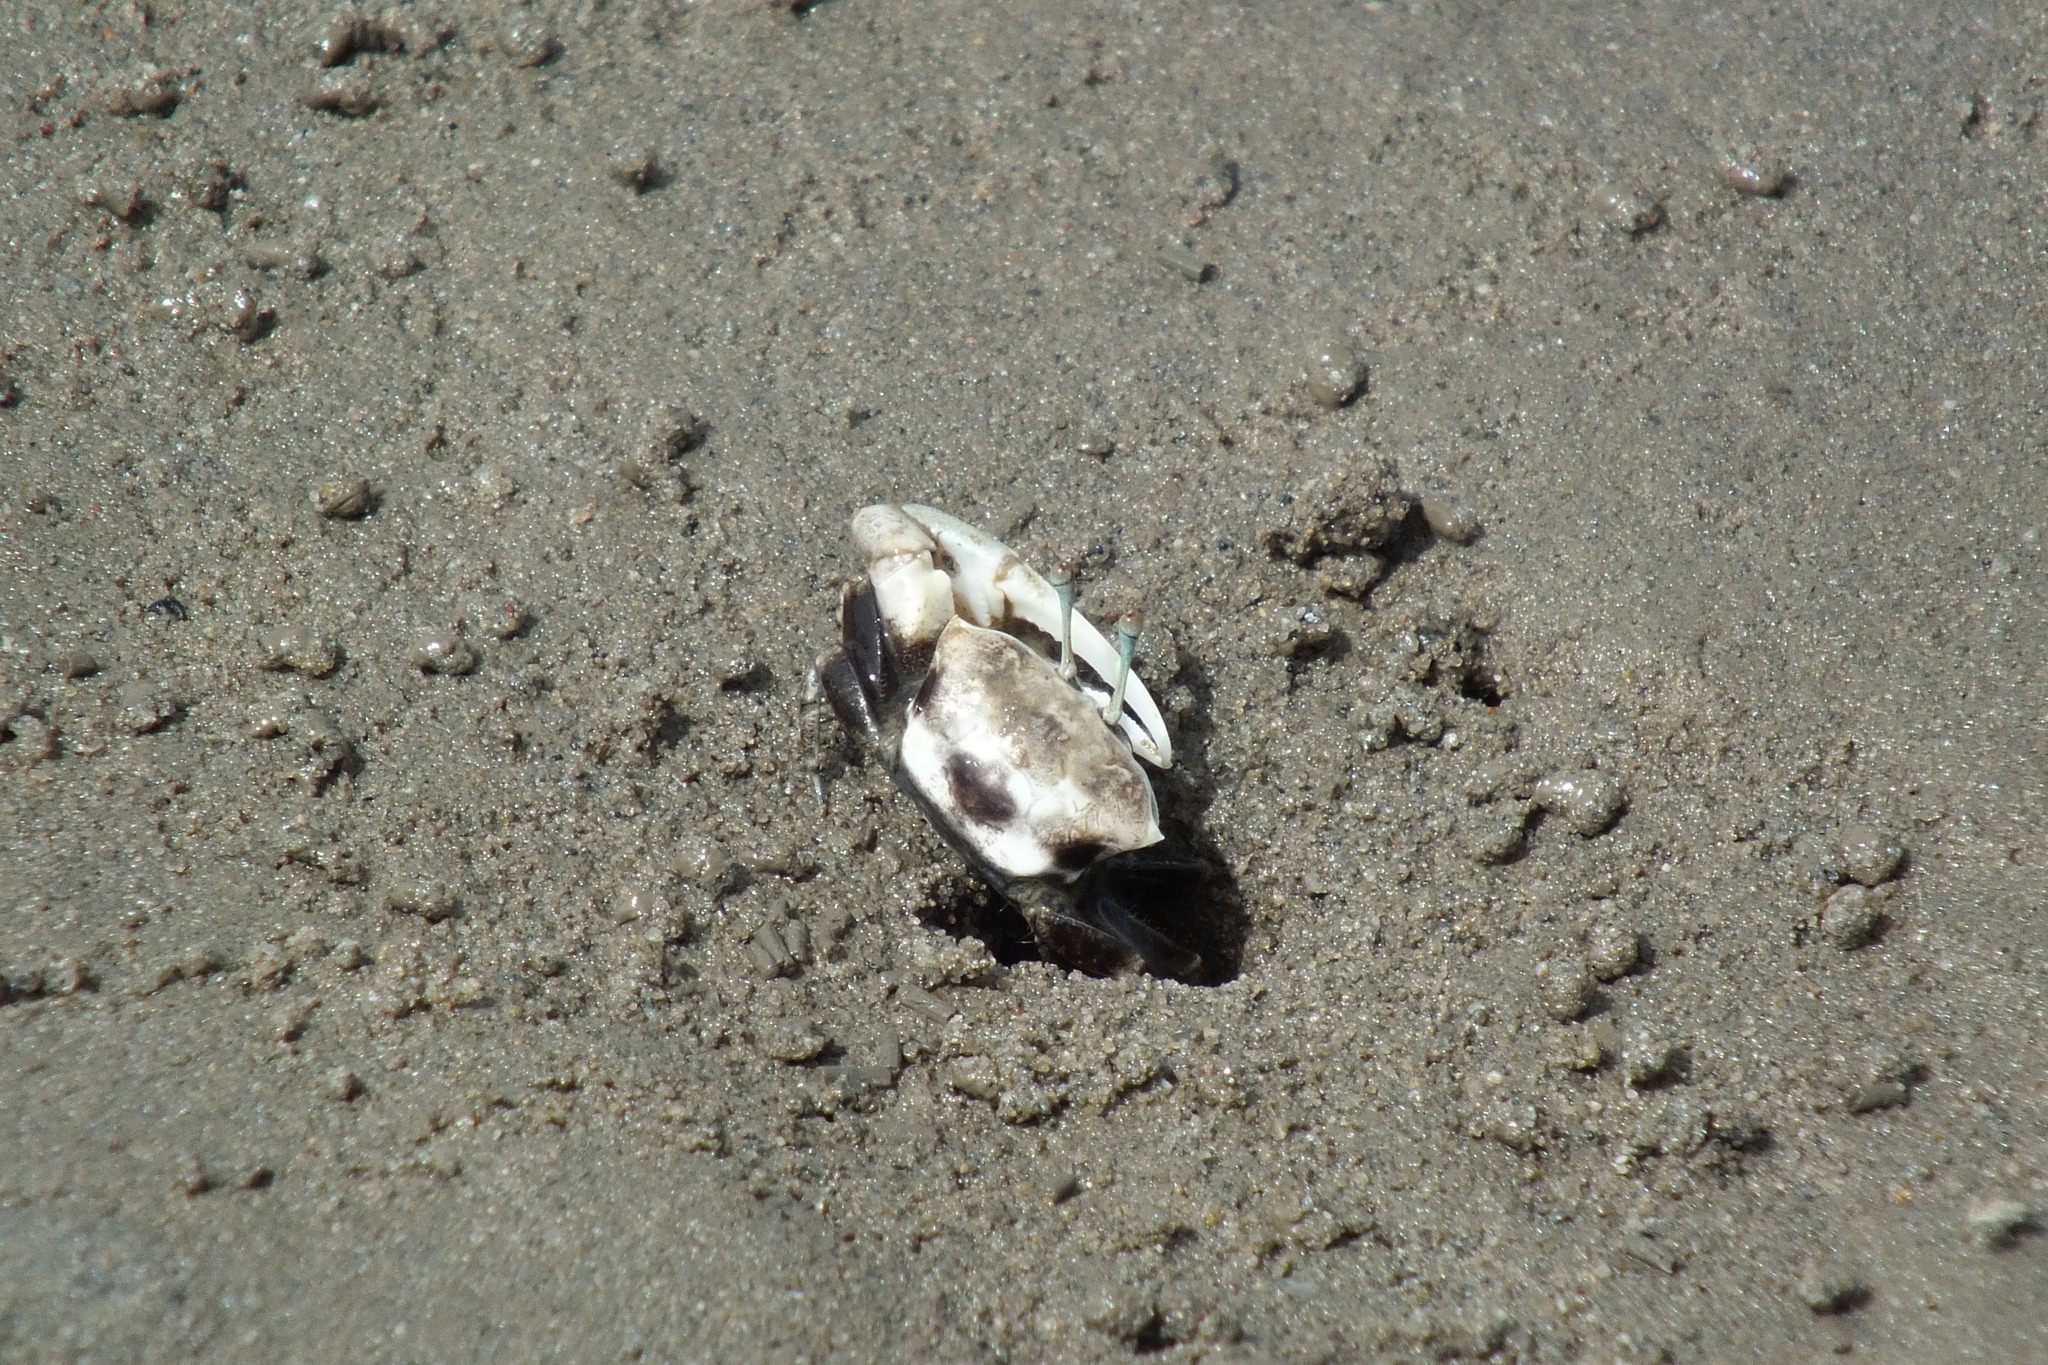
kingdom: Animalia
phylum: Arthropoda
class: Malacostraca
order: Decapoda
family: Ocypodidae
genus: Tubuca
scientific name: Tubuca longidigitum
